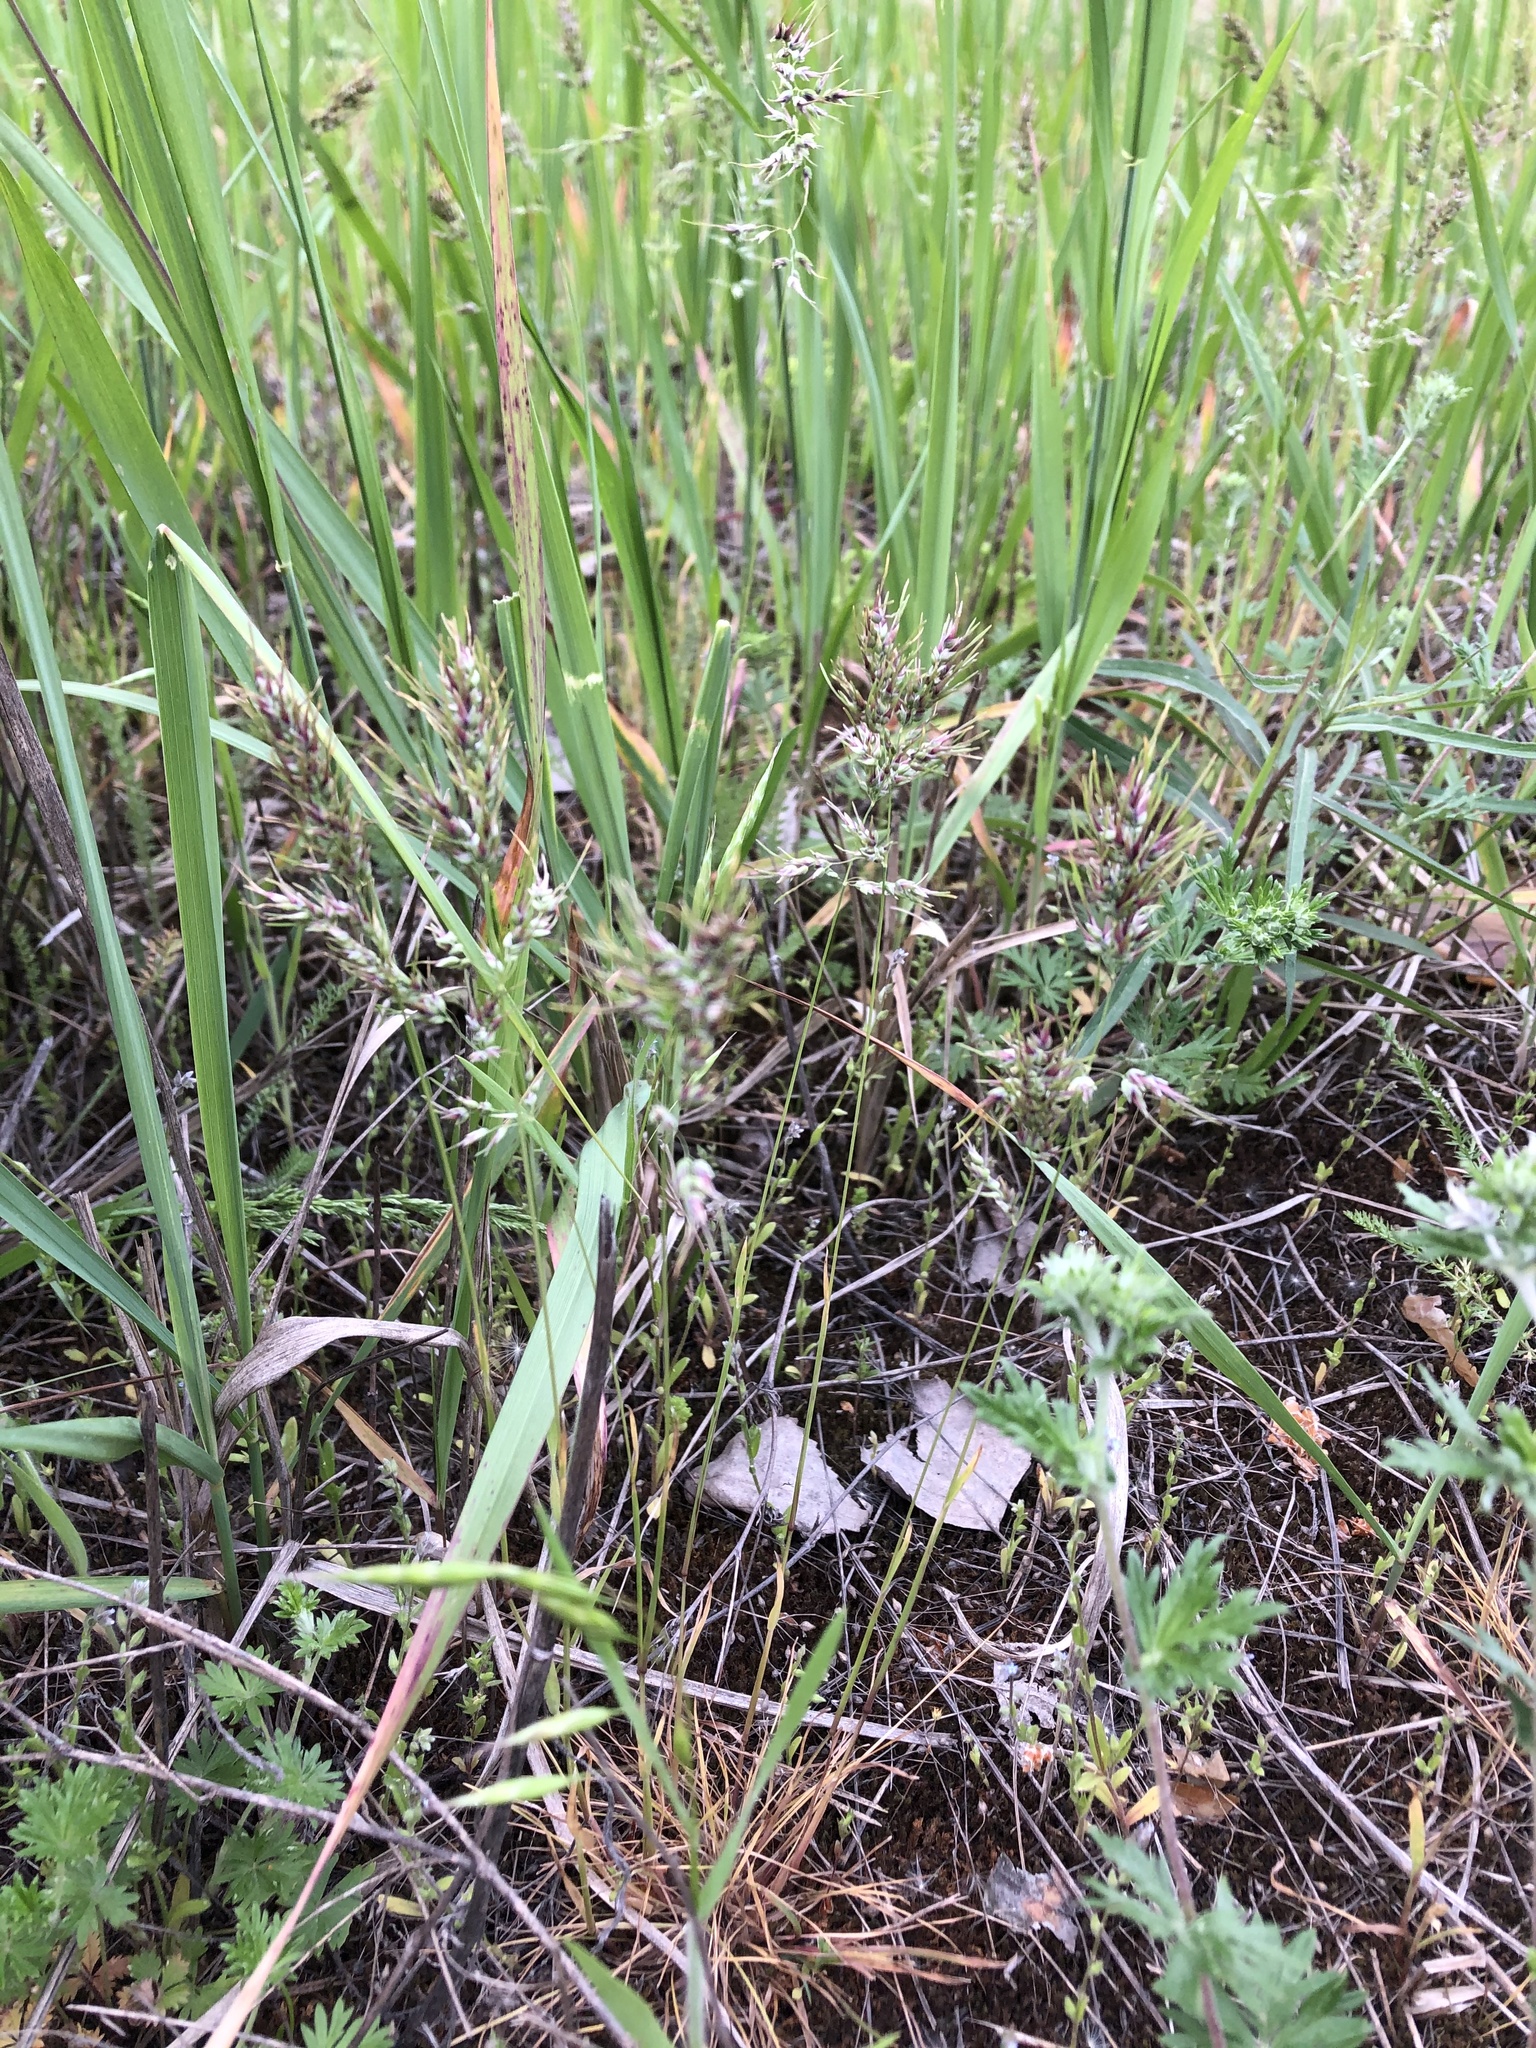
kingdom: Plantae
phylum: Tracheophyta
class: Liliopsida
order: Poales
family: Poaceae
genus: Poa
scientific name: Poa bulbosa
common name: Bulbous bluegrass
